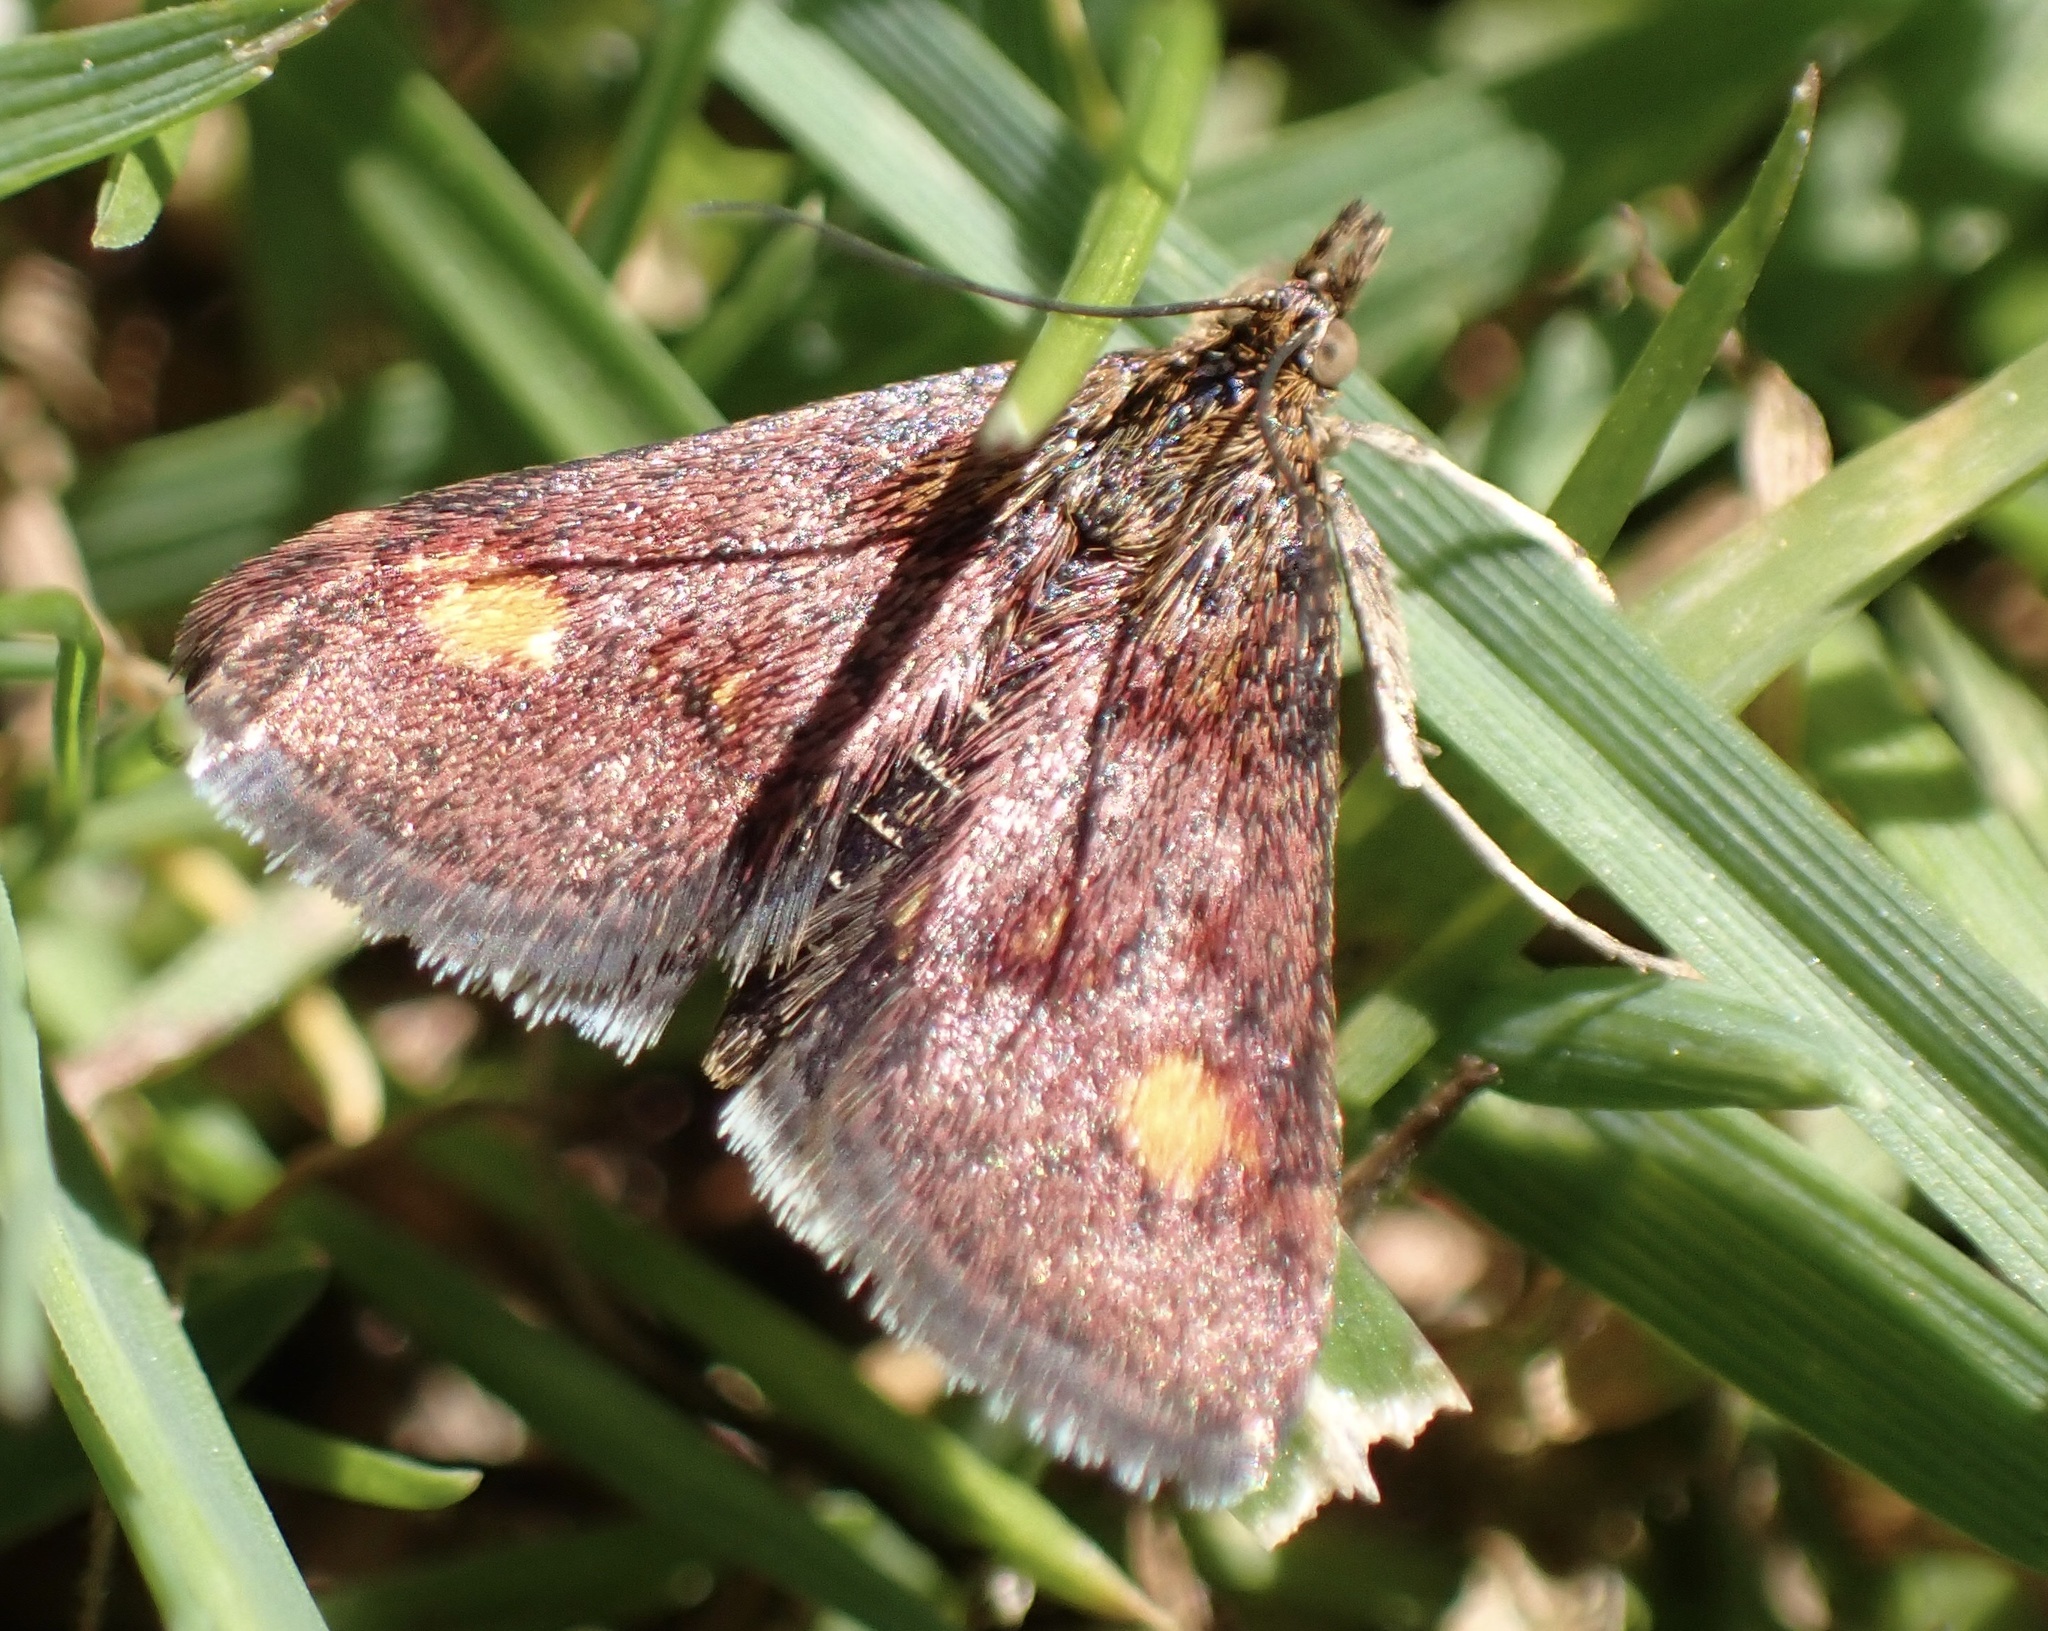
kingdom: Animalia
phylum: Arthropoda
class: Insecta
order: Lepidoptera
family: Crambidae
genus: Pyrausta
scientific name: Pyrausta aurata
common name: Small purple & gold
